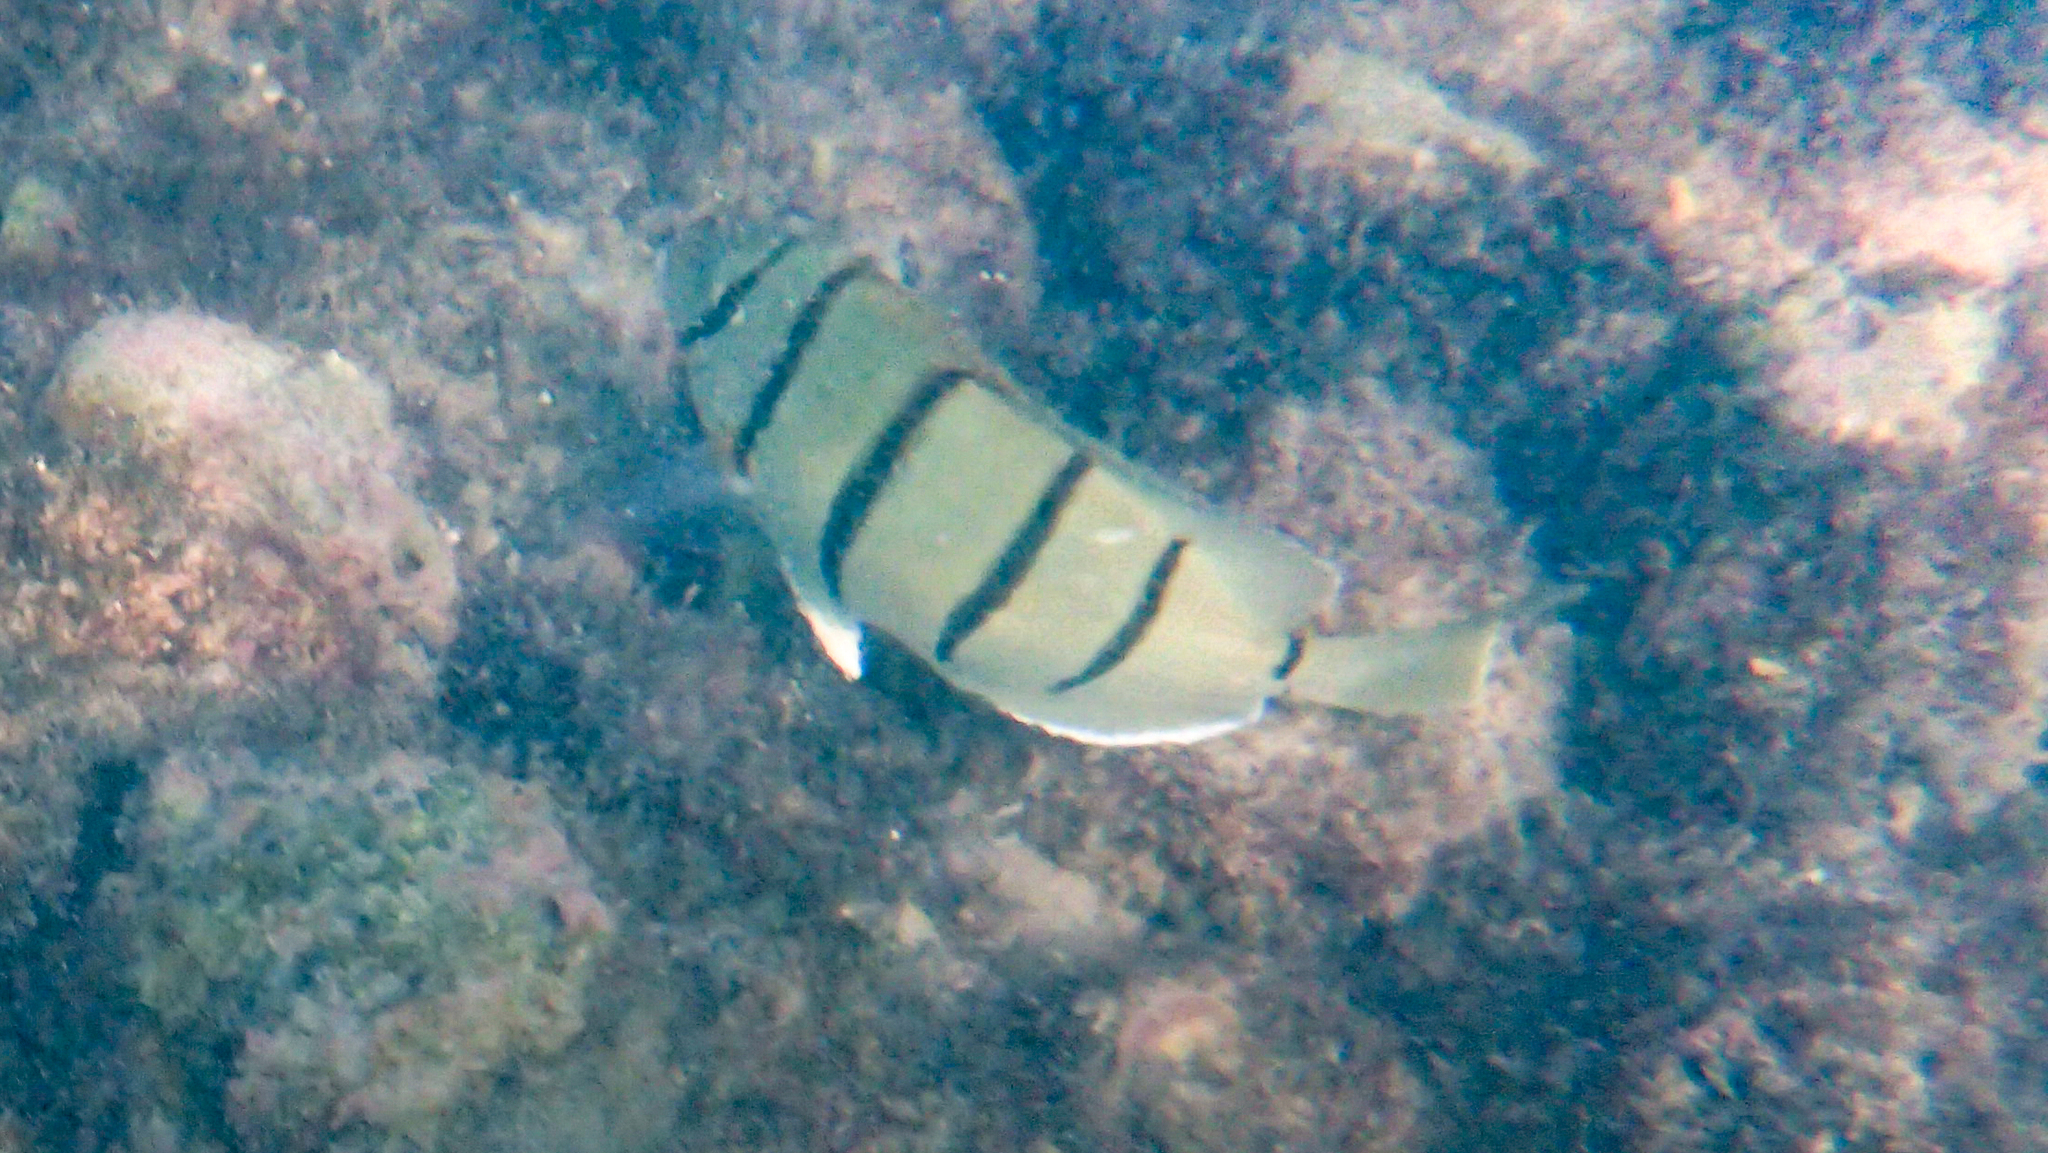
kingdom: Animalia
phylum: Chordata
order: Perciformes
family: Acanthuridae
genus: Acanthurus
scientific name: Acanthurus triostegus
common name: Convict surgeonfish
